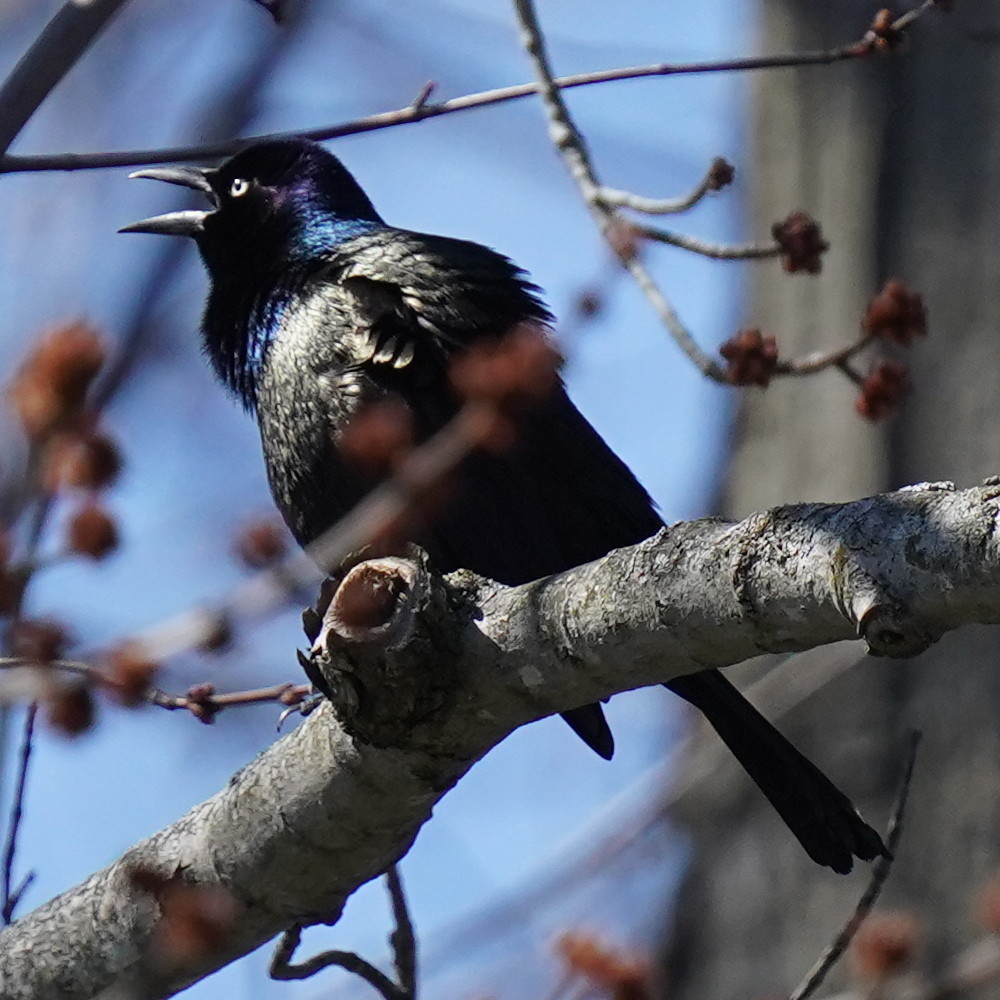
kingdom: Animalia
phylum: Chordata
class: Aves
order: Passeriformes
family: Icteridae
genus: Quiscalus
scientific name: Quiscalus quiscula
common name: Common grackle
